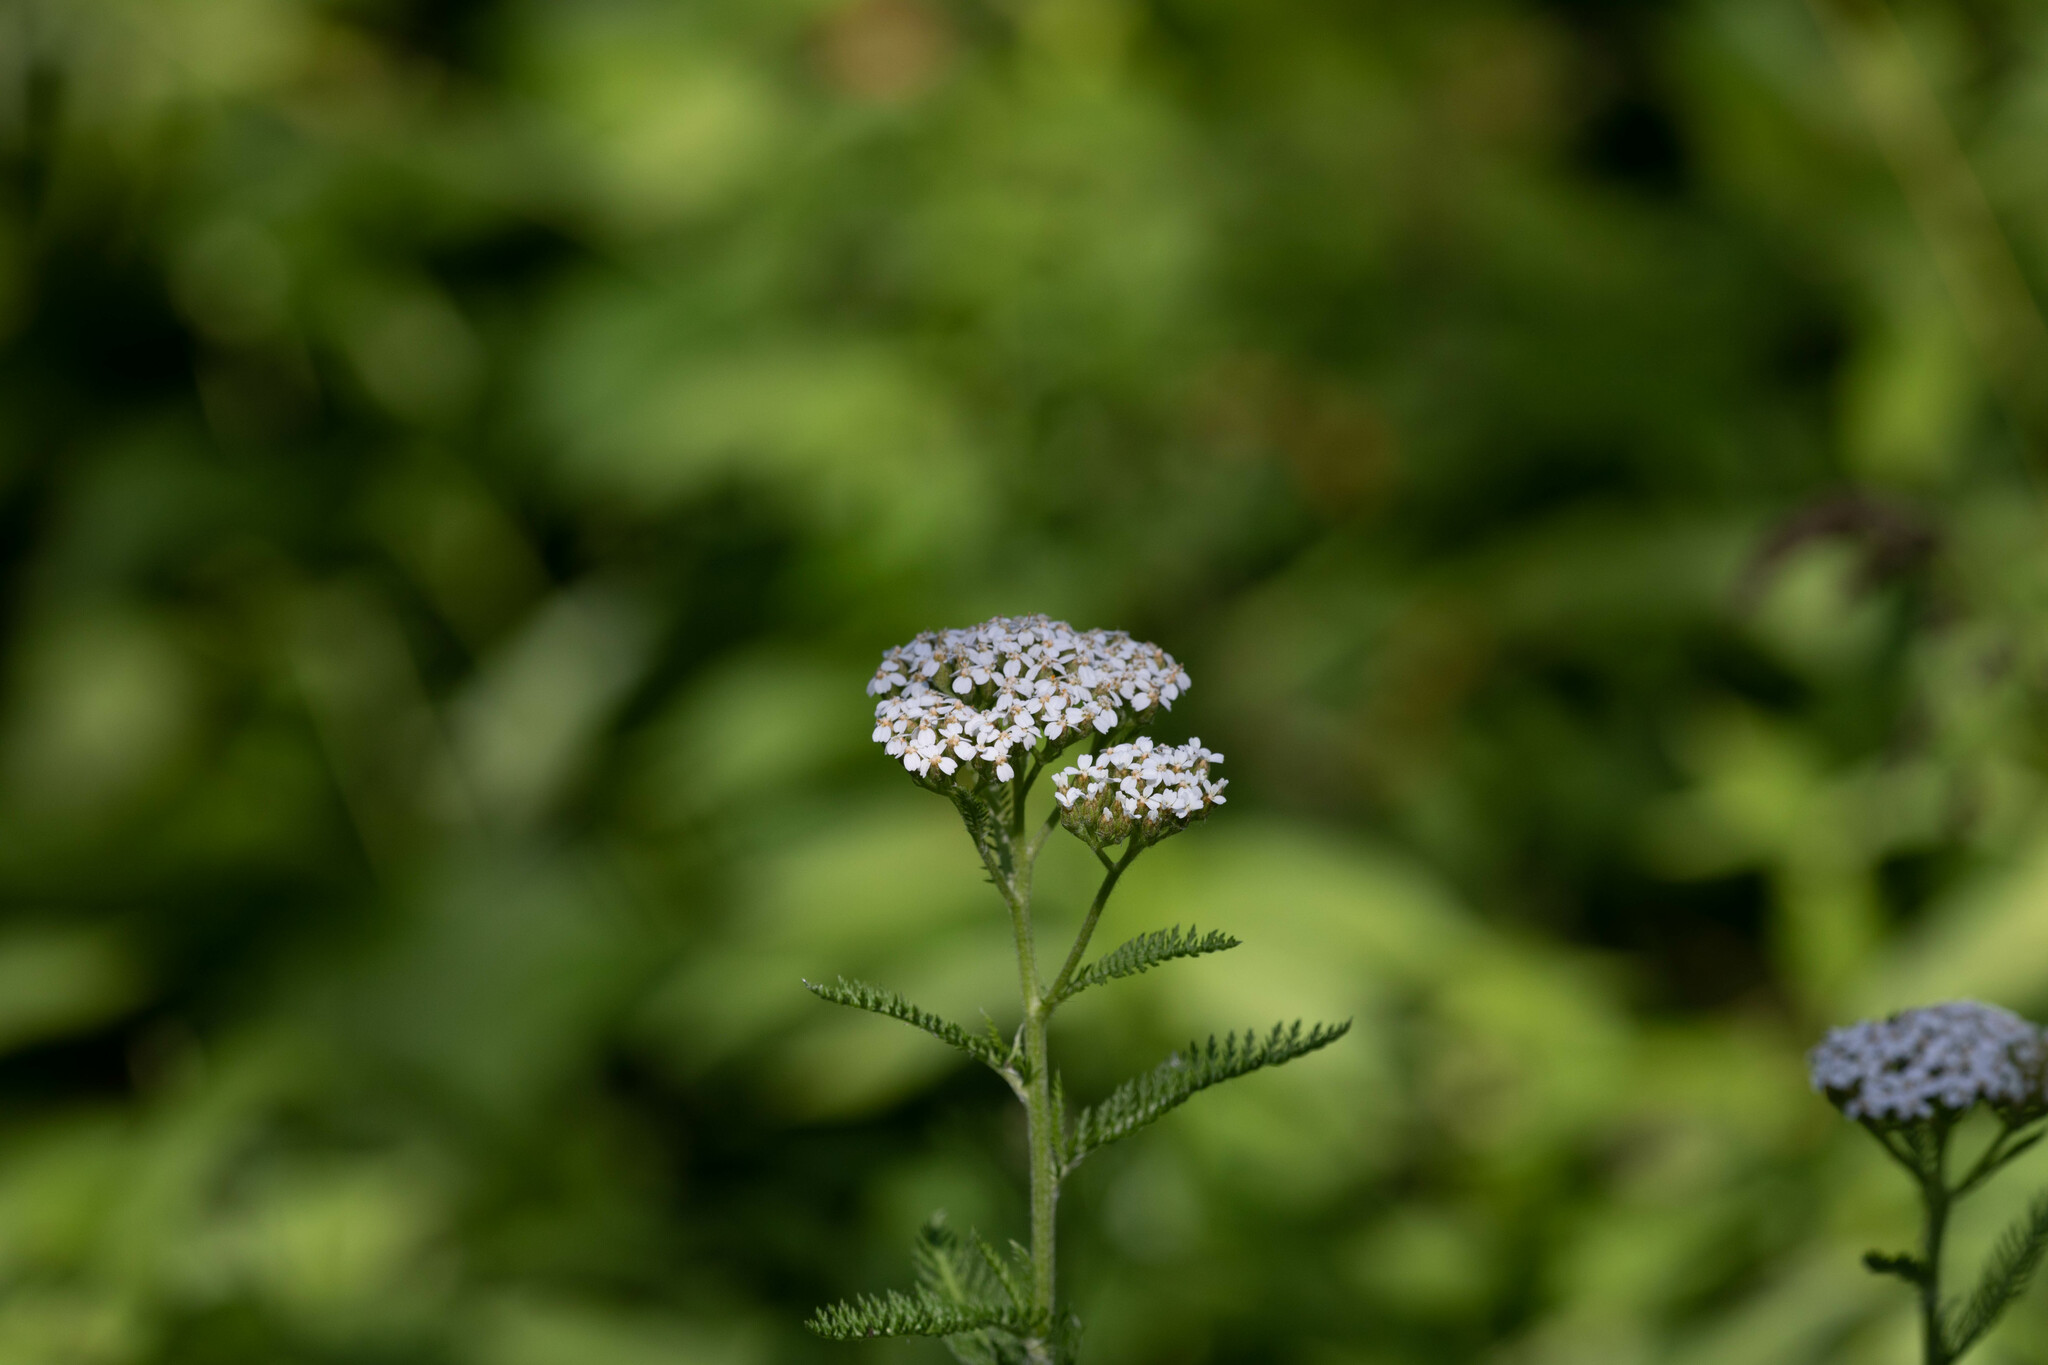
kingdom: Plantae
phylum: Tracheophyta
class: Magnoliopsida
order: Asterales
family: Asteraceae
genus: Achillea
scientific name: Achillea millefolium
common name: Yarrow
